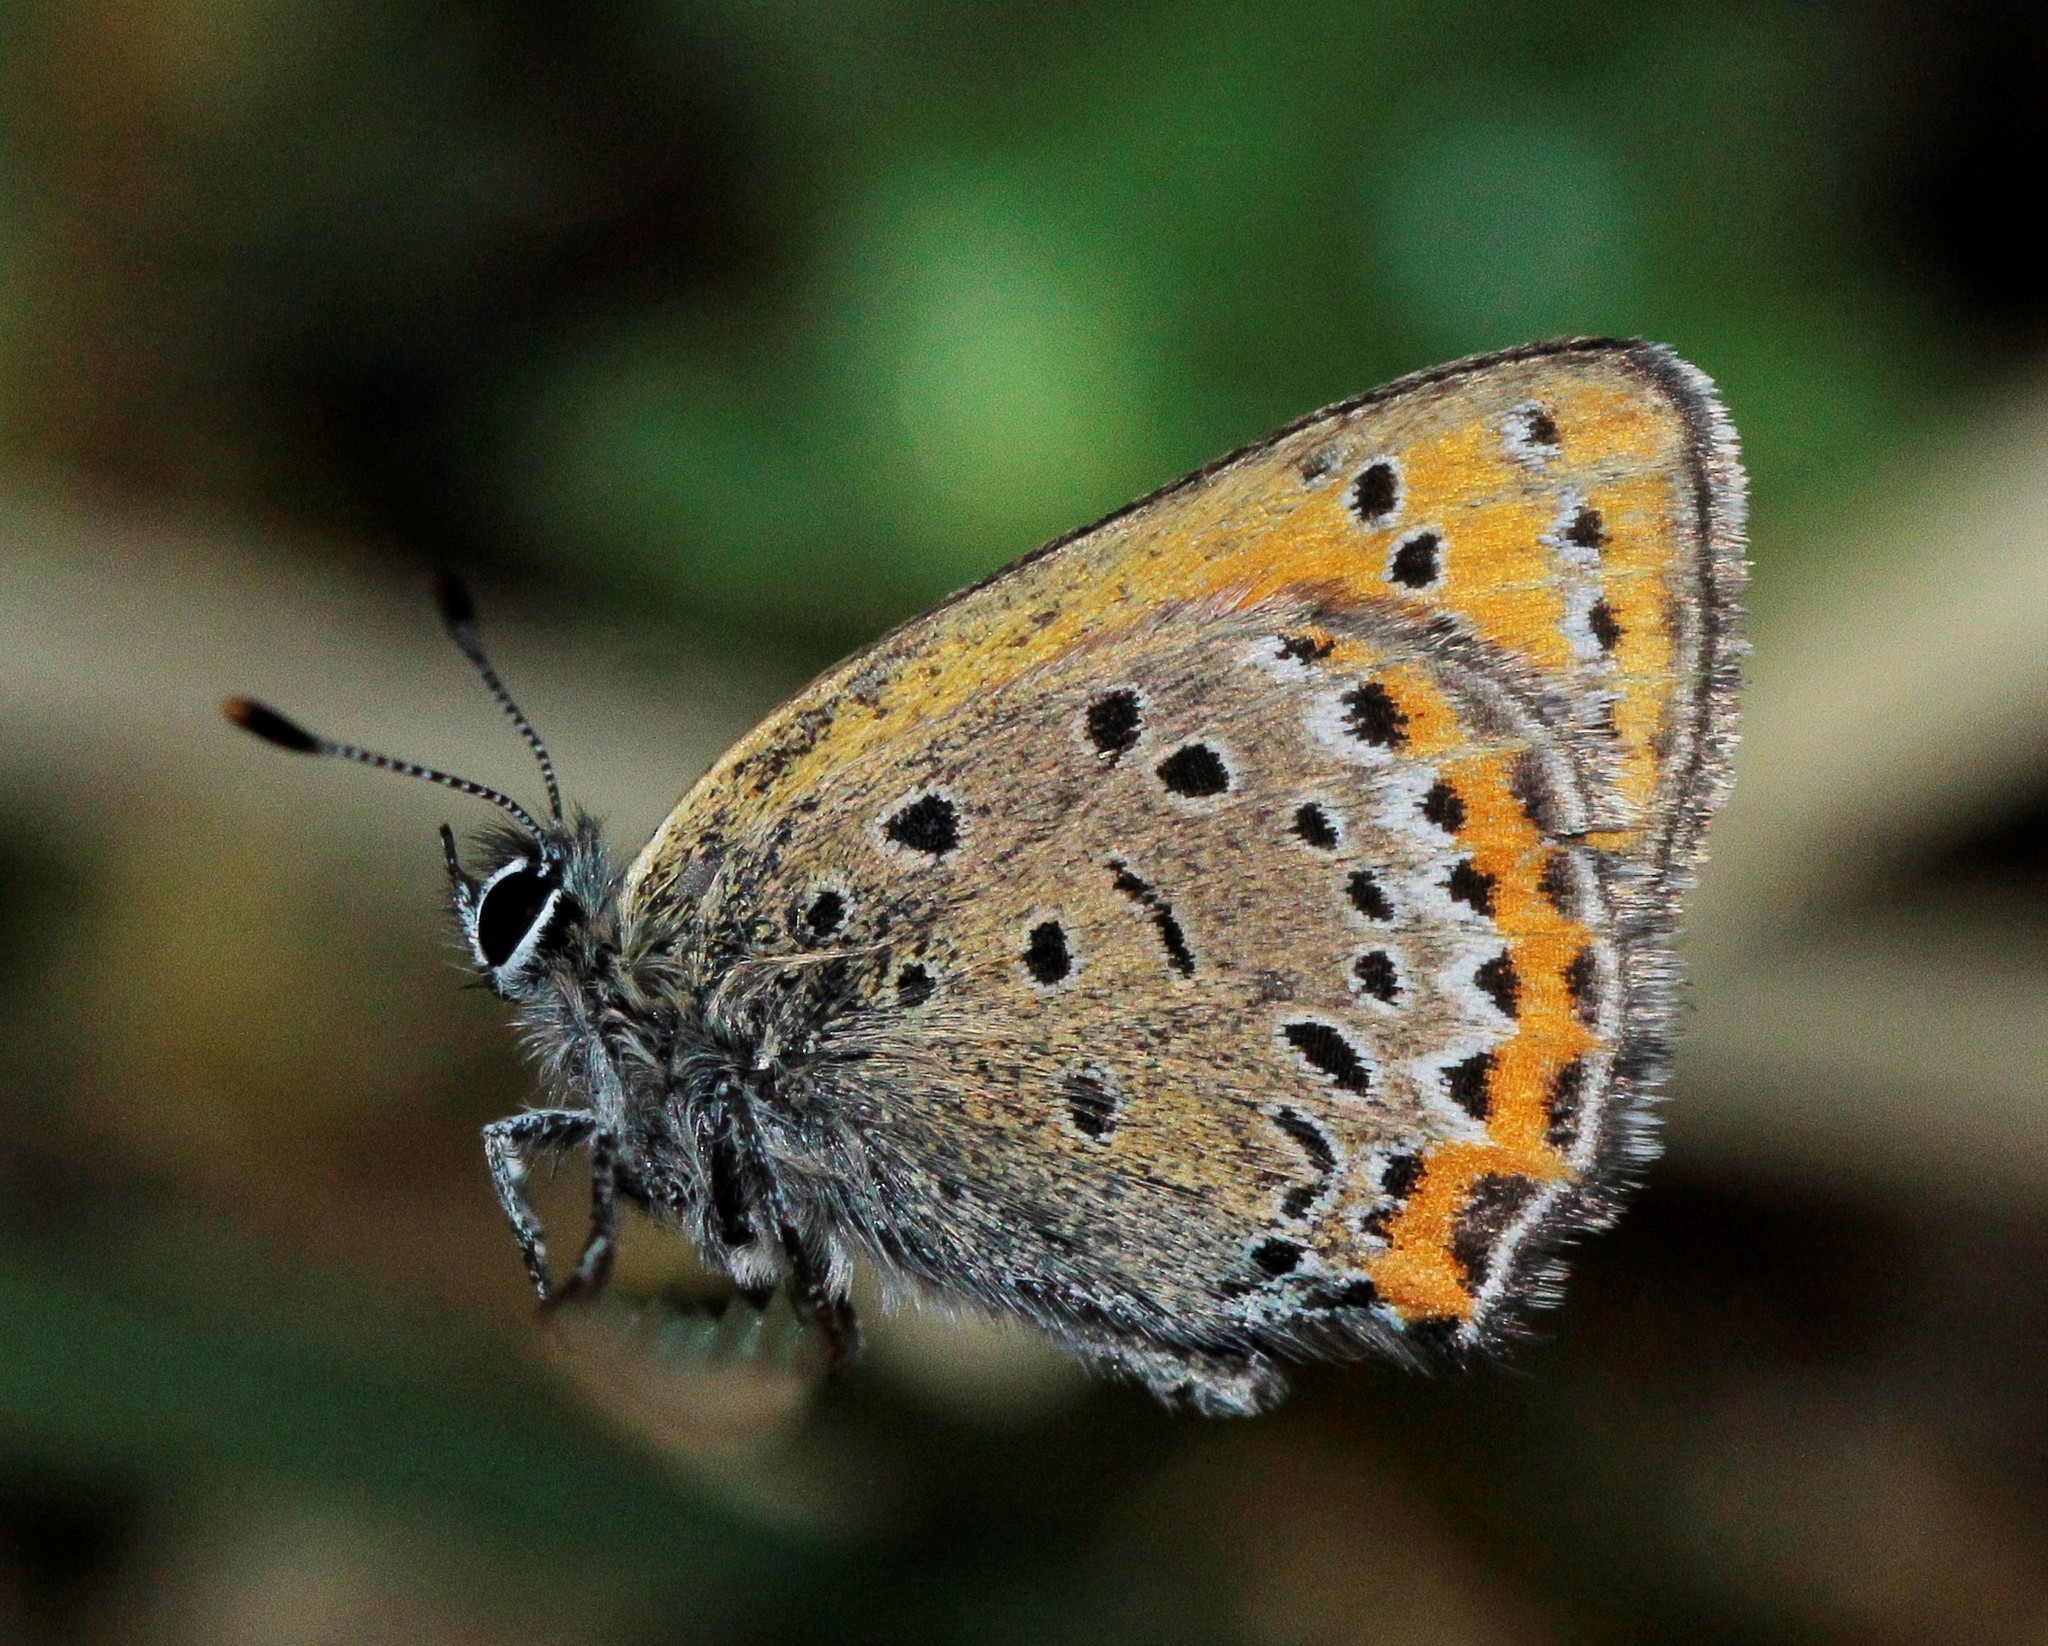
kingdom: Animalia
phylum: Arthropoda
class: Insecta
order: Lepidoptera
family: Lycaenidae
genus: Helleia
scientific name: Helleia helle
